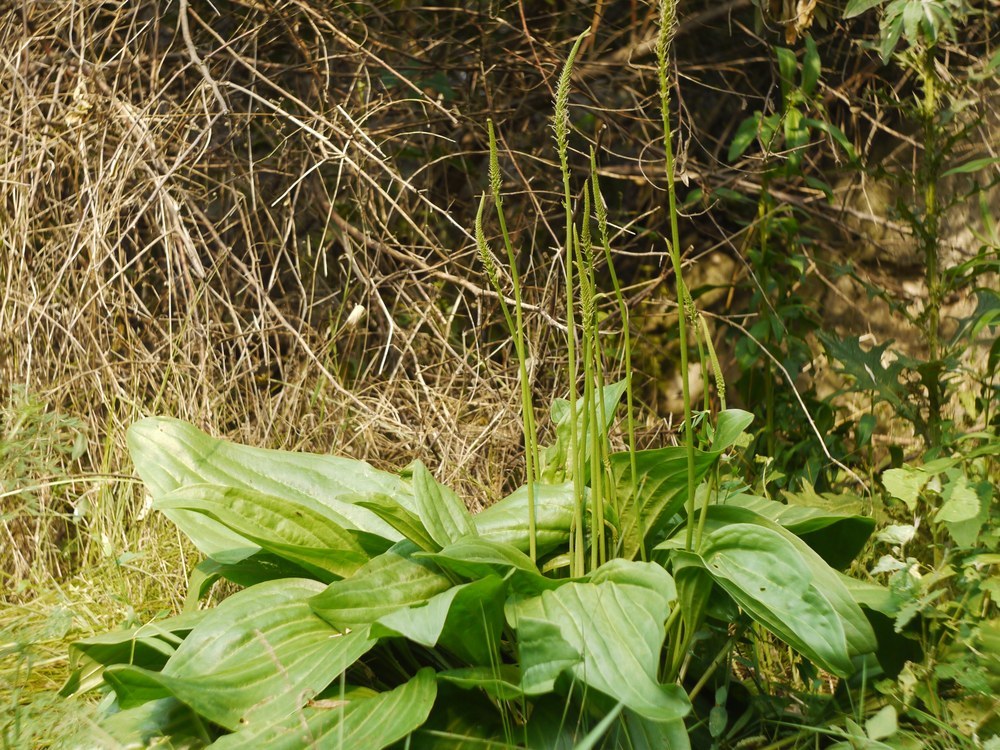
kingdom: Plantae
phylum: Tracheophyta
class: Magnoliopsida
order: Lamiales
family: Plantaginaceae
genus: Plantago
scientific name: Plantago cornuti
